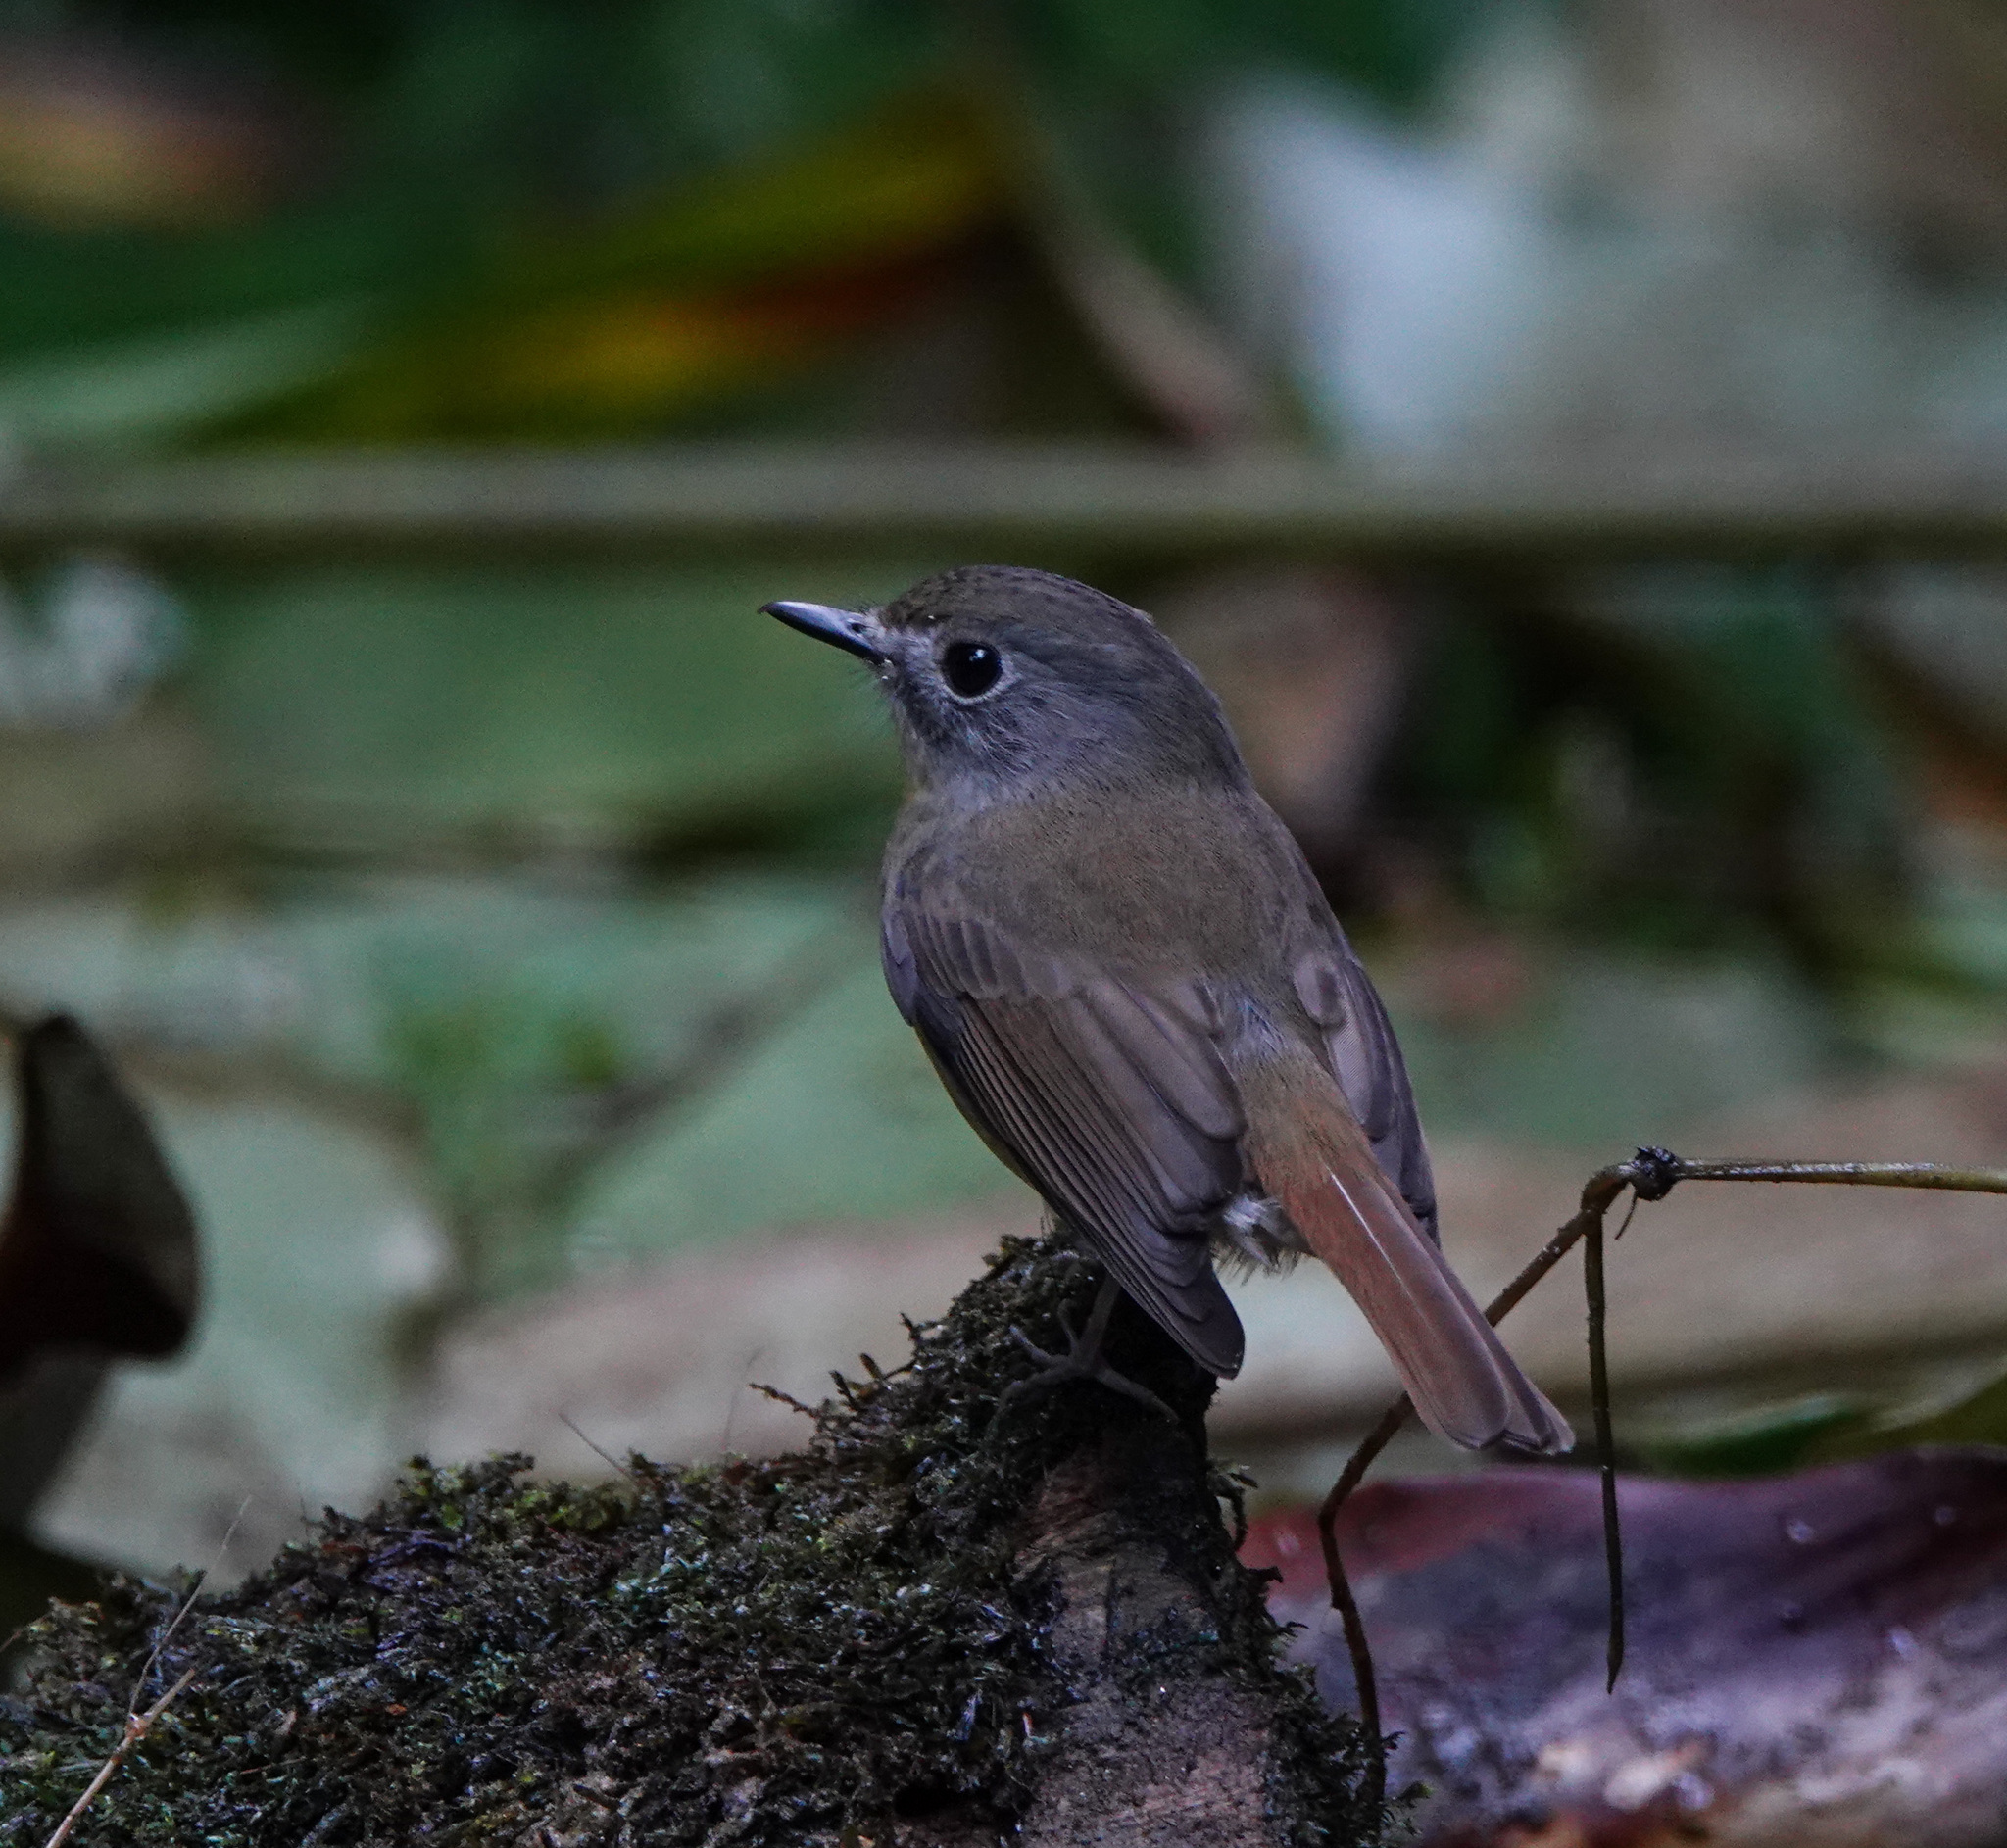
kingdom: Animalia
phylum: Chordata
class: Aves
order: Passeriformes
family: Muscicapidae
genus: Cyornis
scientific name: Cyornis poliogenys
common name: Pale-chinned blue flycatcher
